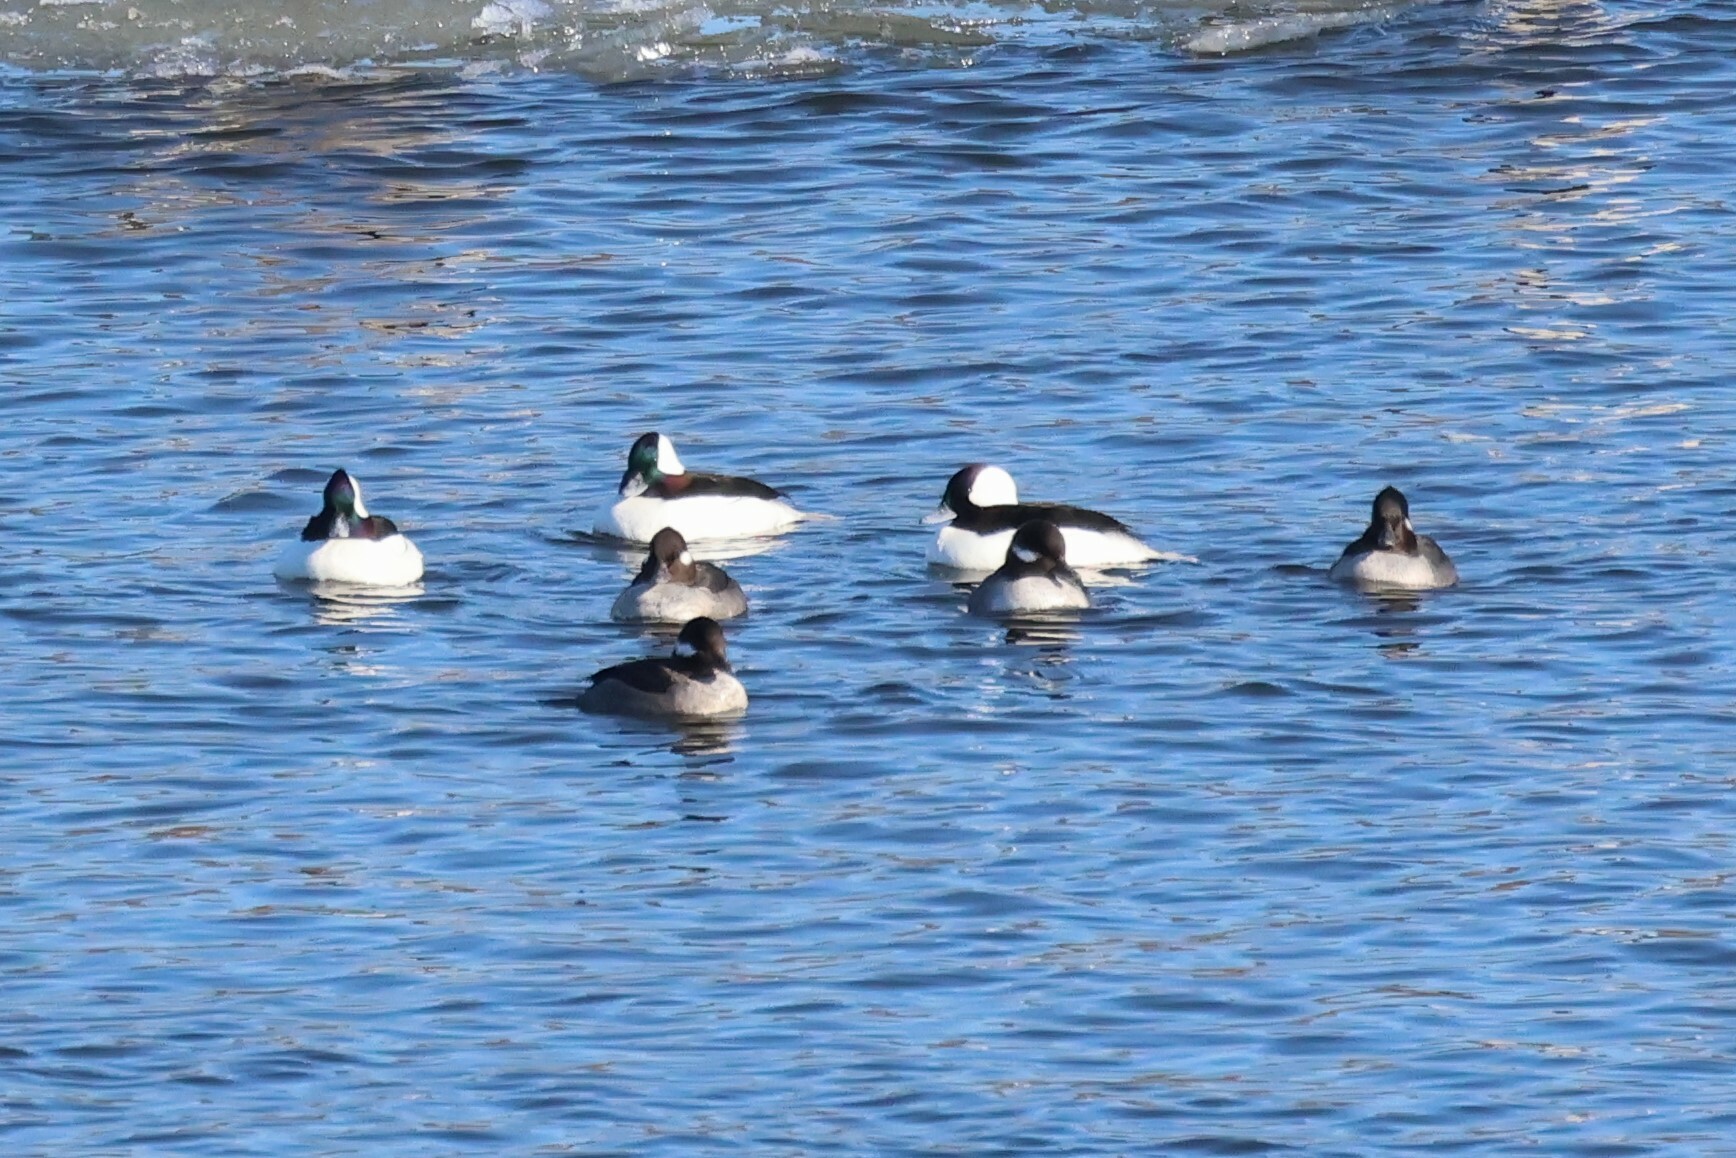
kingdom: Animalia
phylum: Chordata
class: Aves
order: Anseriformes
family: Anatidae
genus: Bucephala
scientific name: Bucephala albeola
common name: Bufflehead
